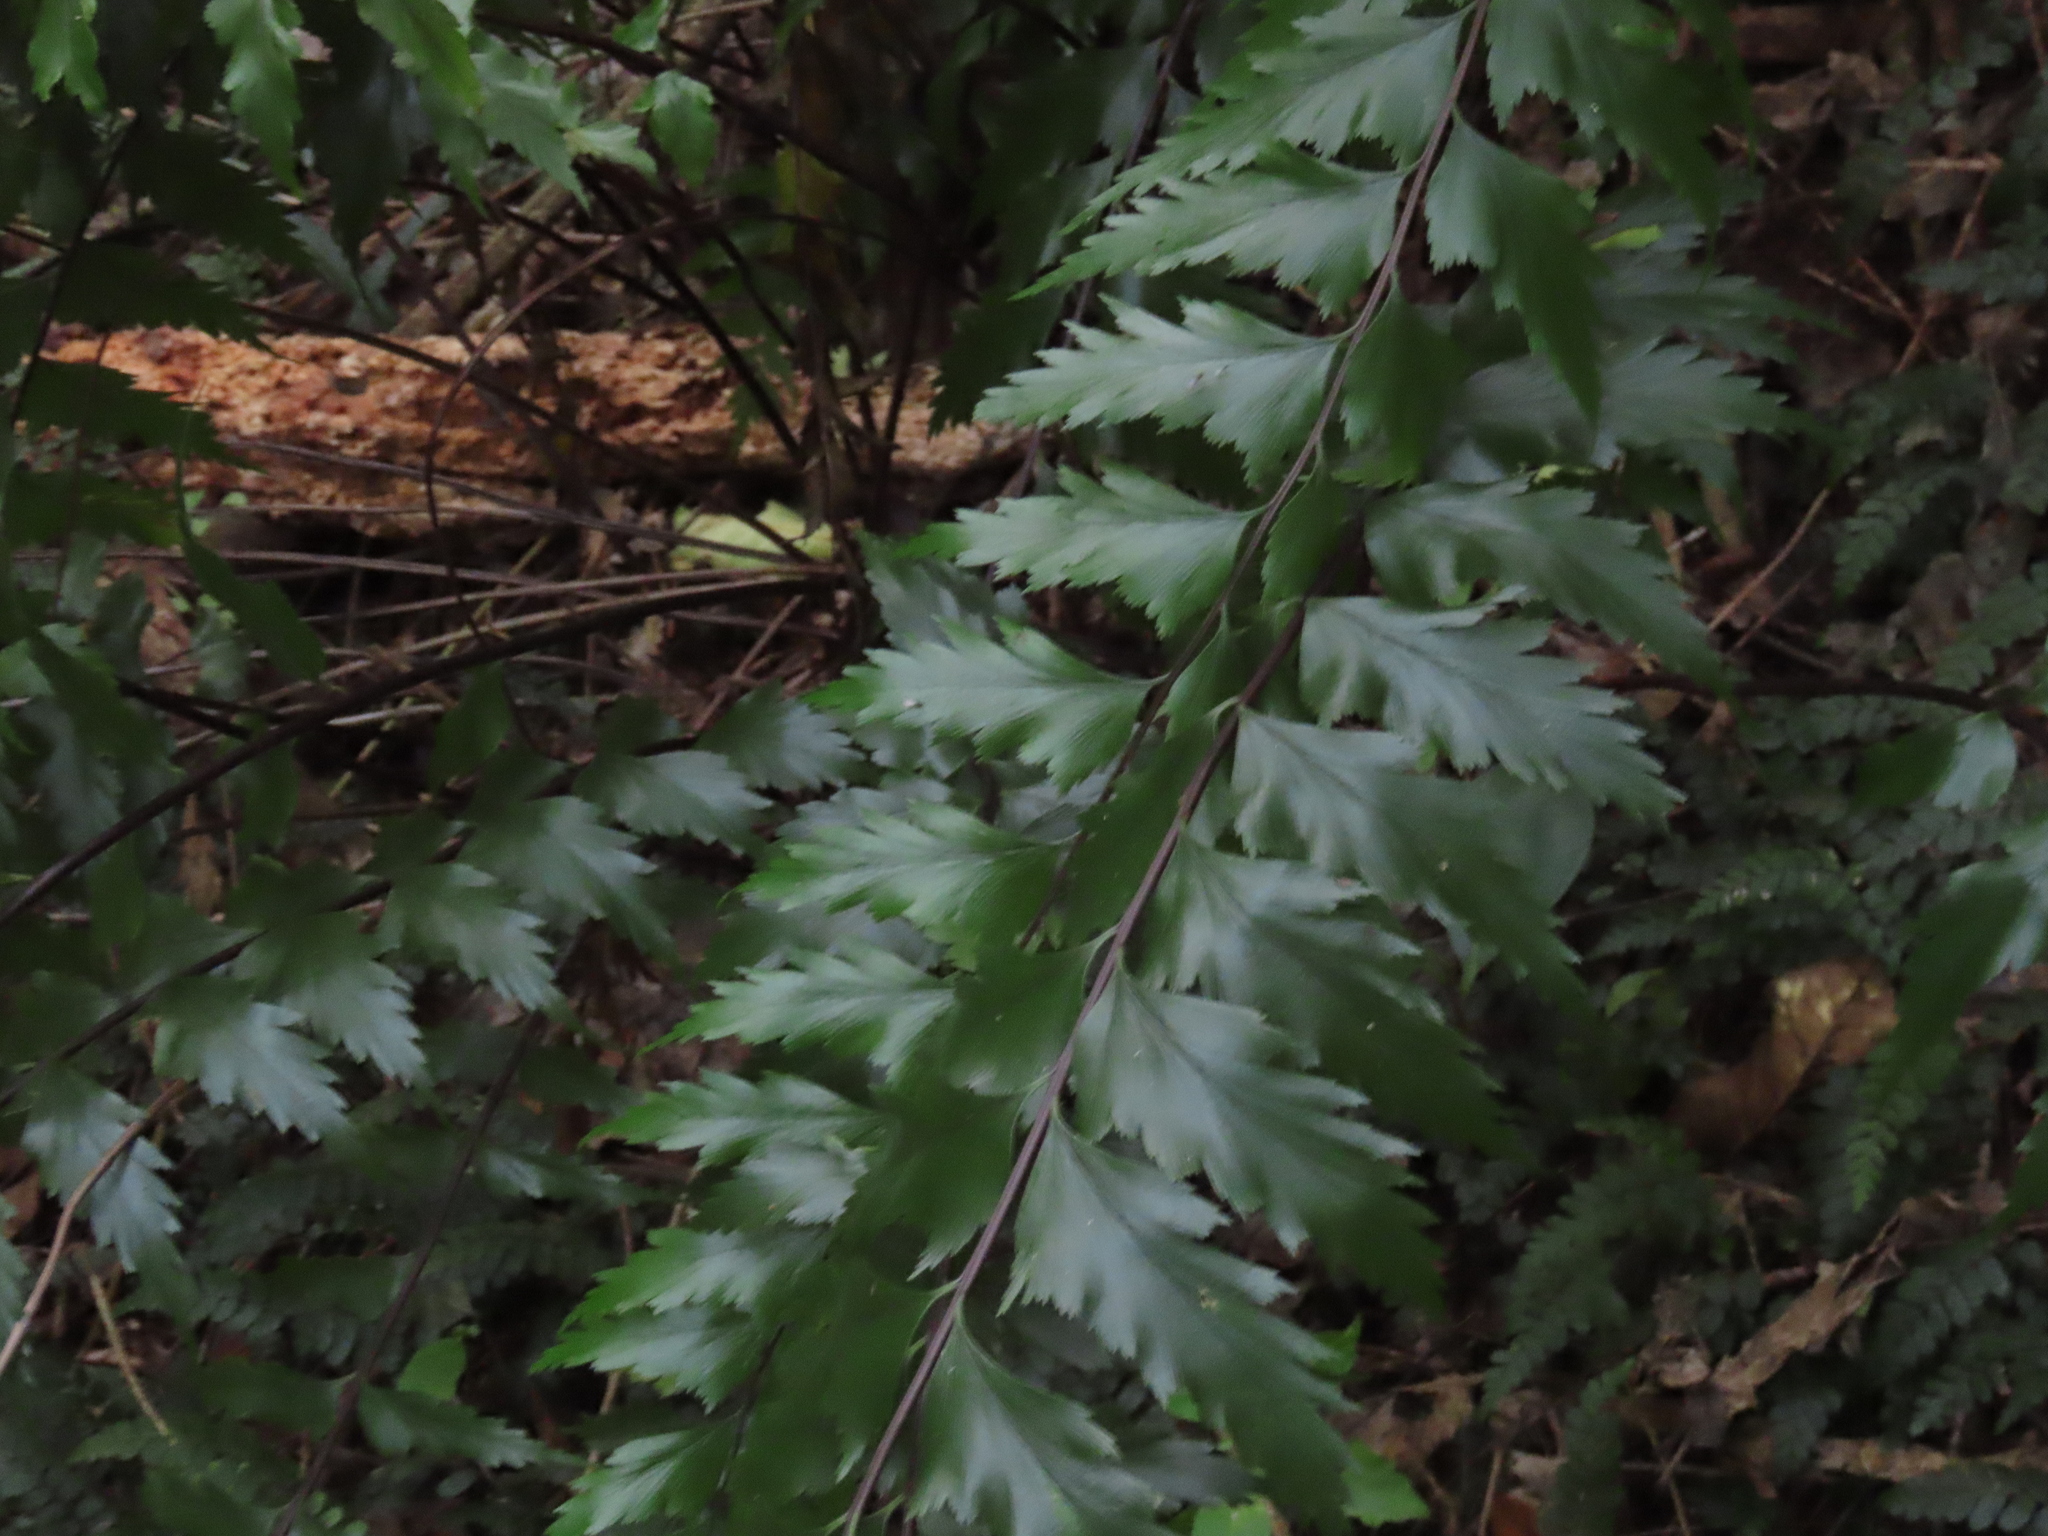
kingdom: Plantae
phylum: Tracheophyta
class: Polypodiopsida
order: Polypodiales
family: Aspleniaceae
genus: Asplenium
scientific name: Asplenium polyodon
